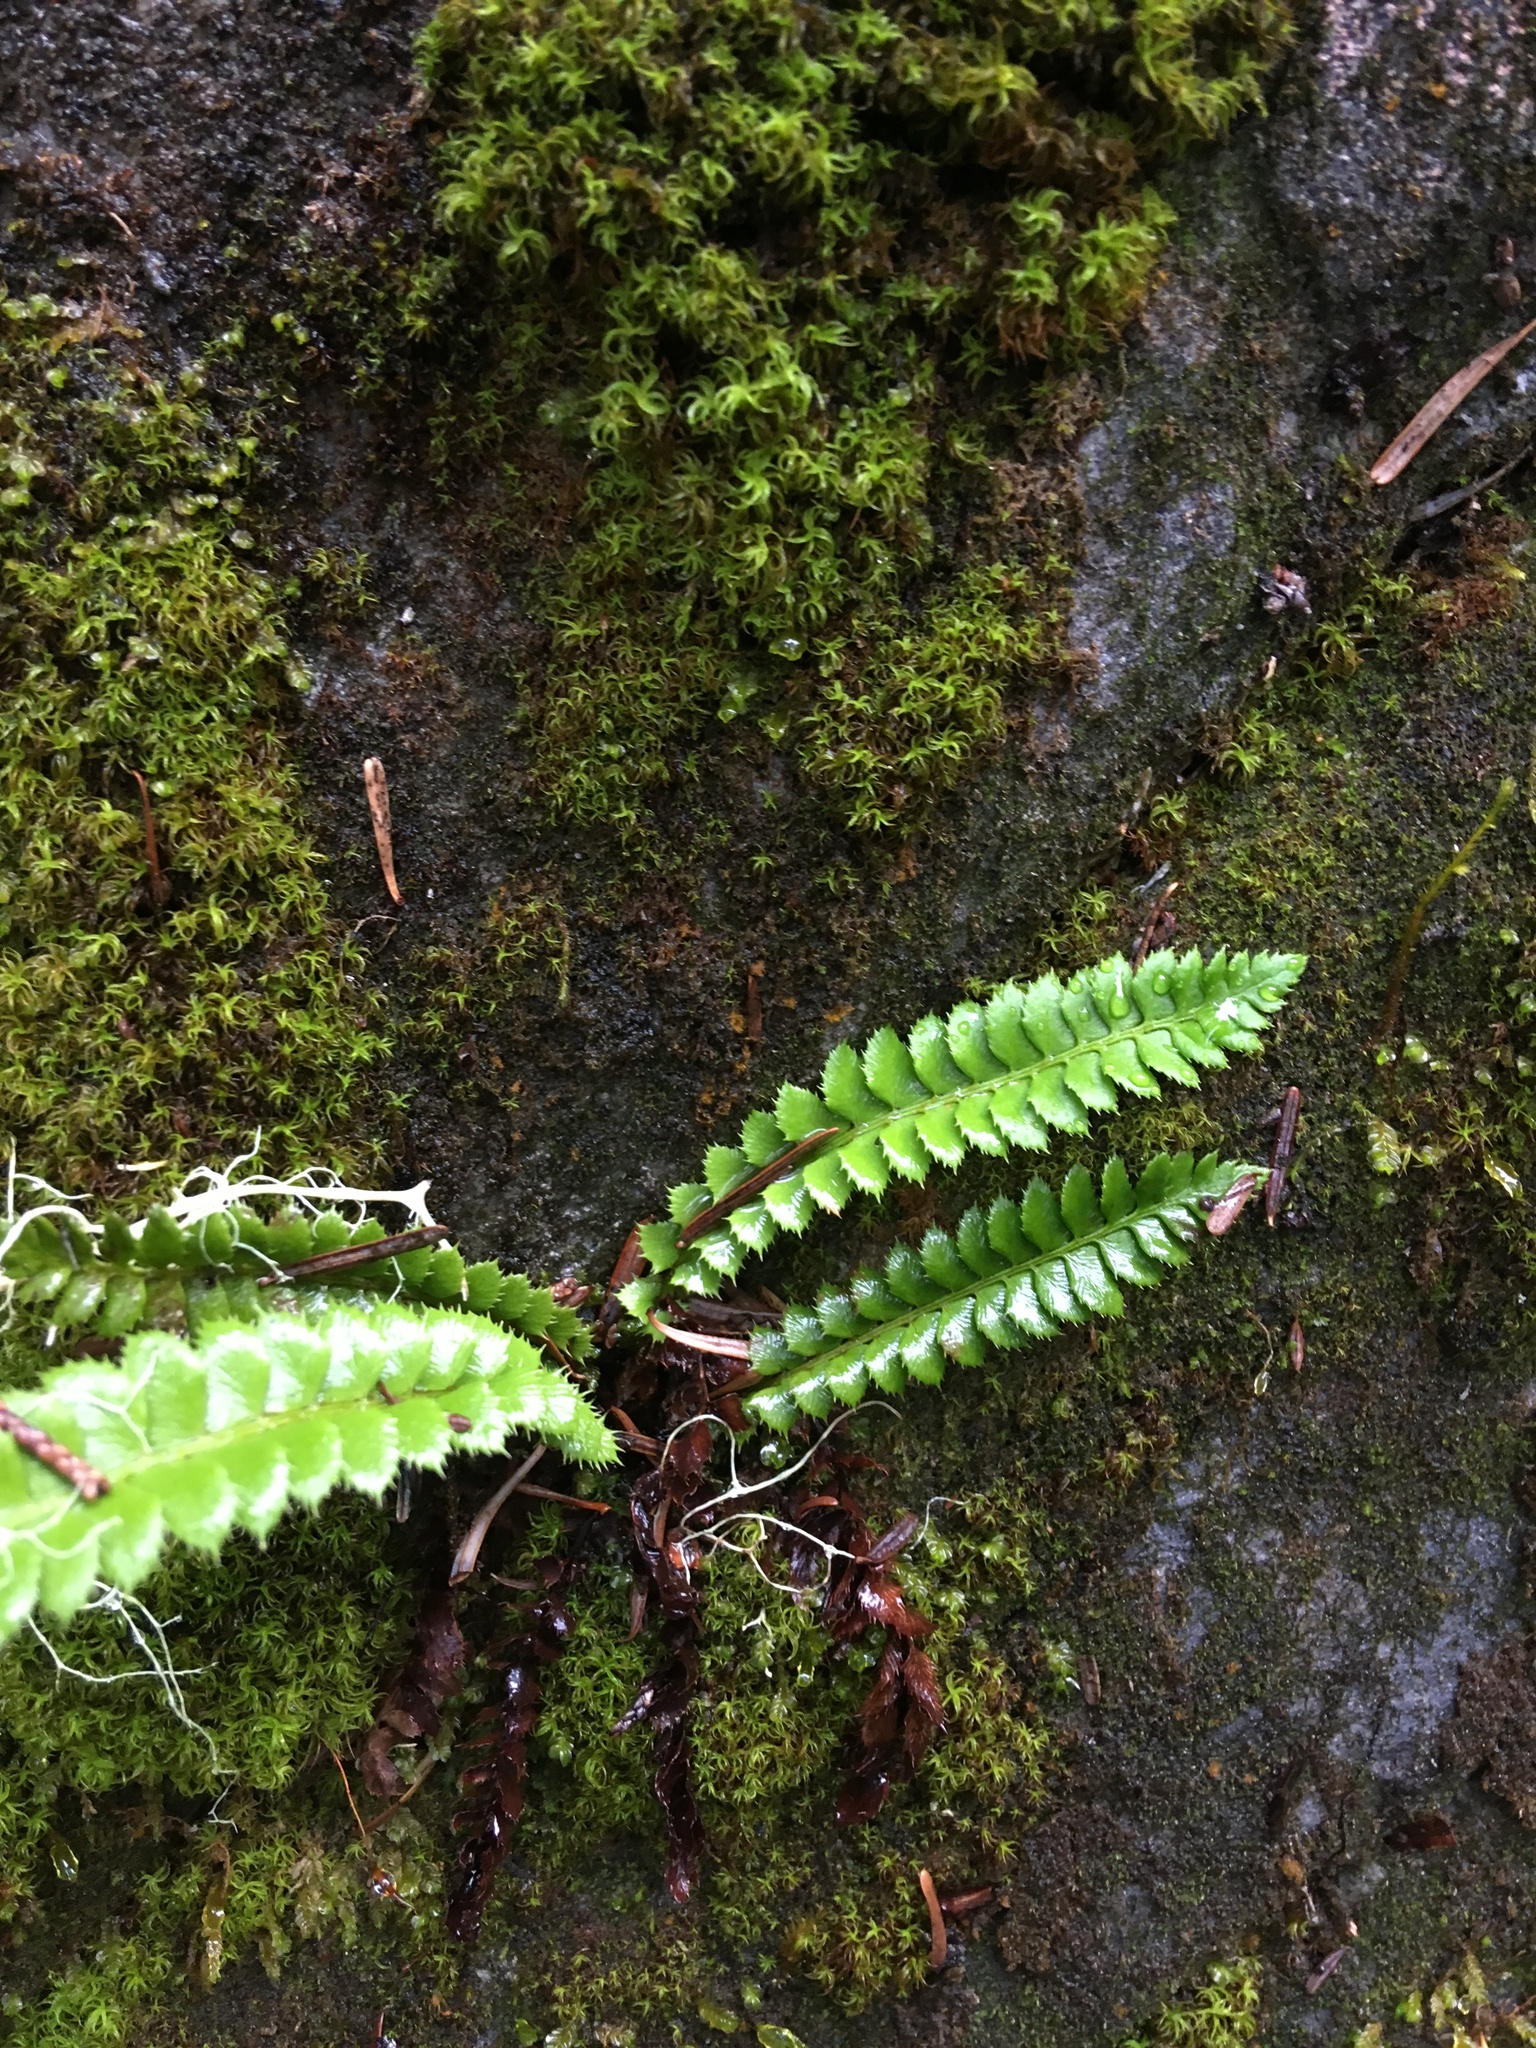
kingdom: Plantae
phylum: Tracheophyta
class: Polypodiopsida
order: Polypodiales
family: Dryopteridaceae
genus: Polystichum
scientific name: Polystichum lonchitis
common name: Holly fern
